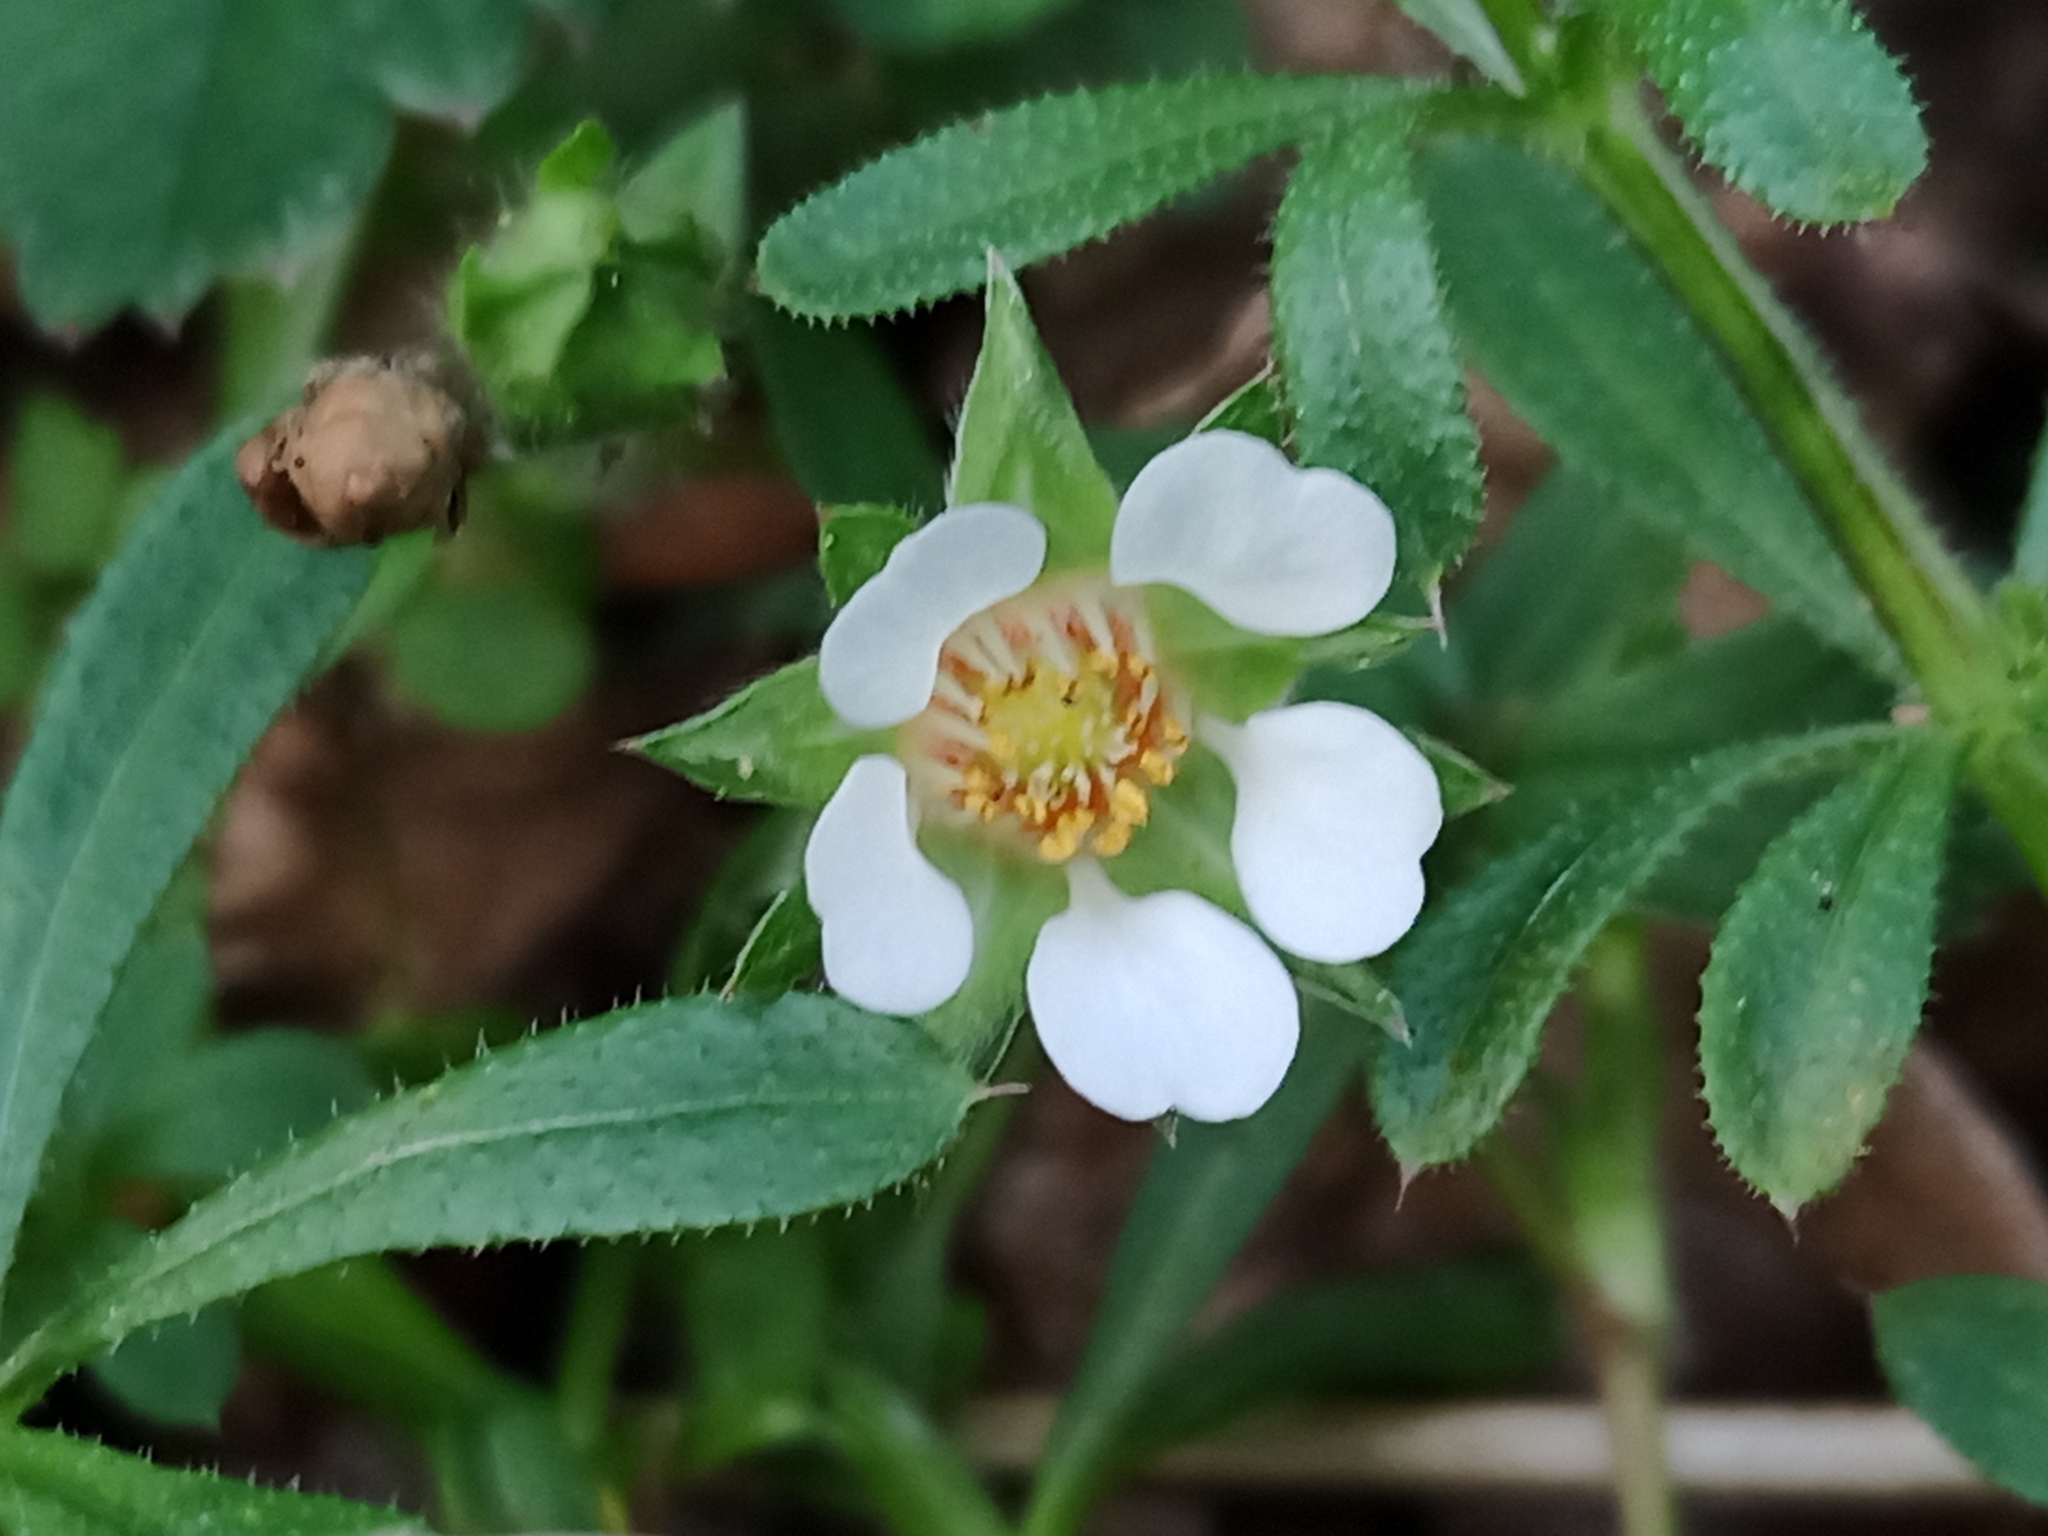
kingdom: Plantae
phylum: Tracheophyta
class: Magnoliopsida
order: Rosales
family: Rosaceae
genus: Potentilla
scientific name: Potentilla sterilis
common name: Barren strawberry
